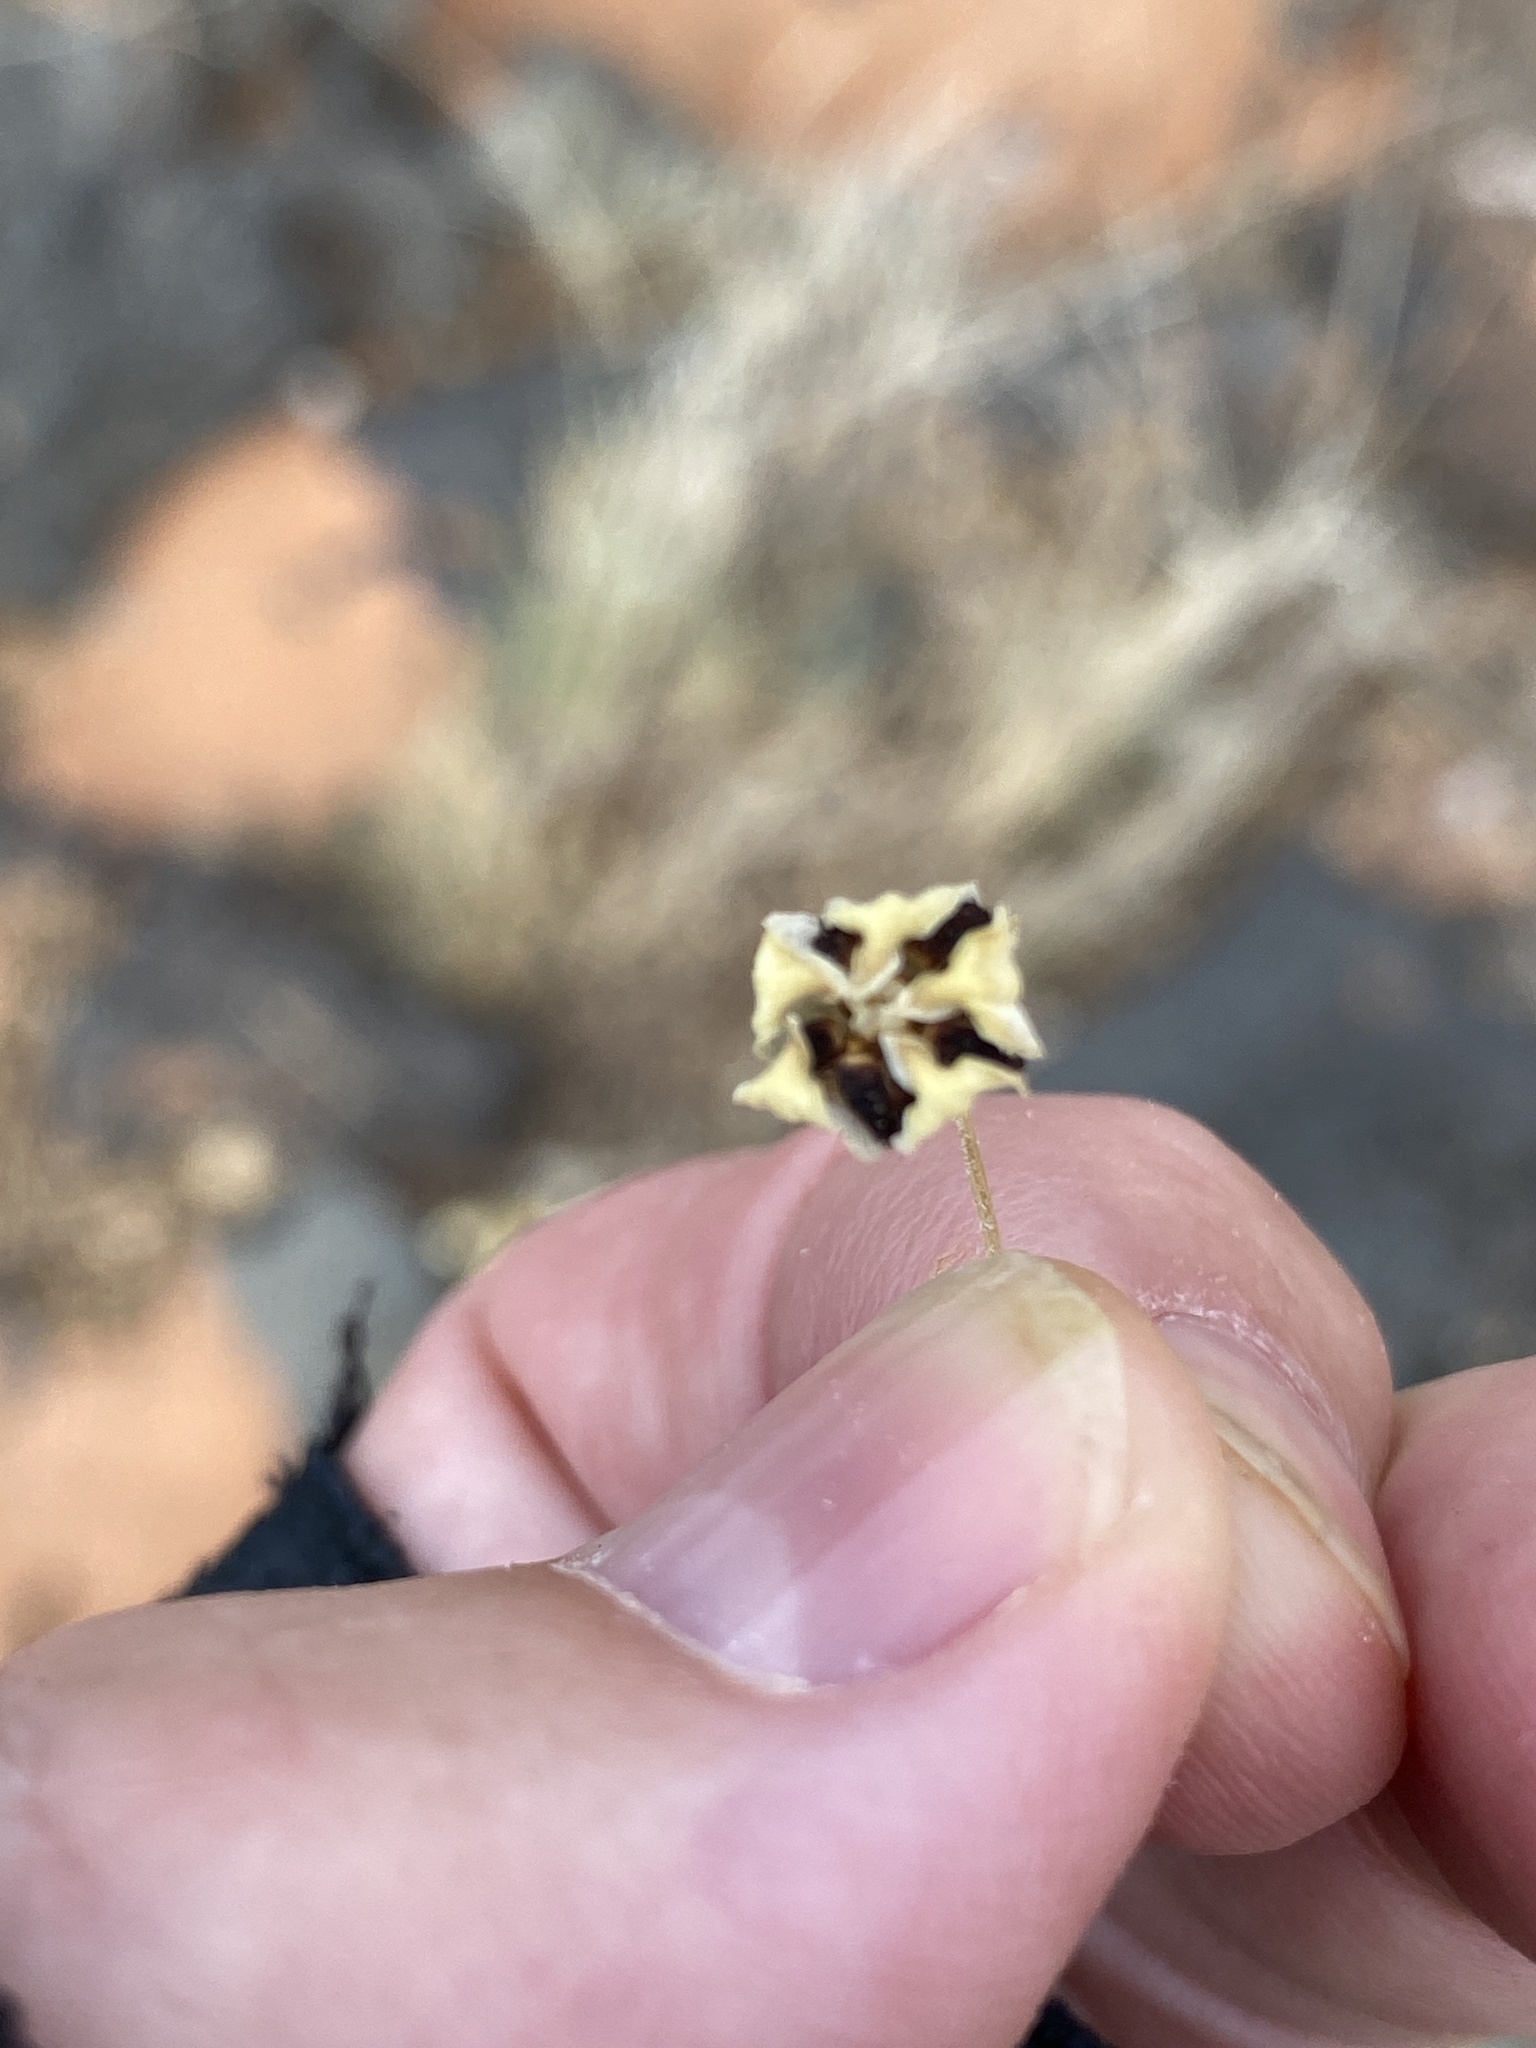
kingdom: Plantae
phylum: Tracheophyta
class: Magnoliopsida
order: Gentianales
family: Apocynaceae
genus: Asclepias
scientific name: Asclepias asperula
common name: Antelope horns
